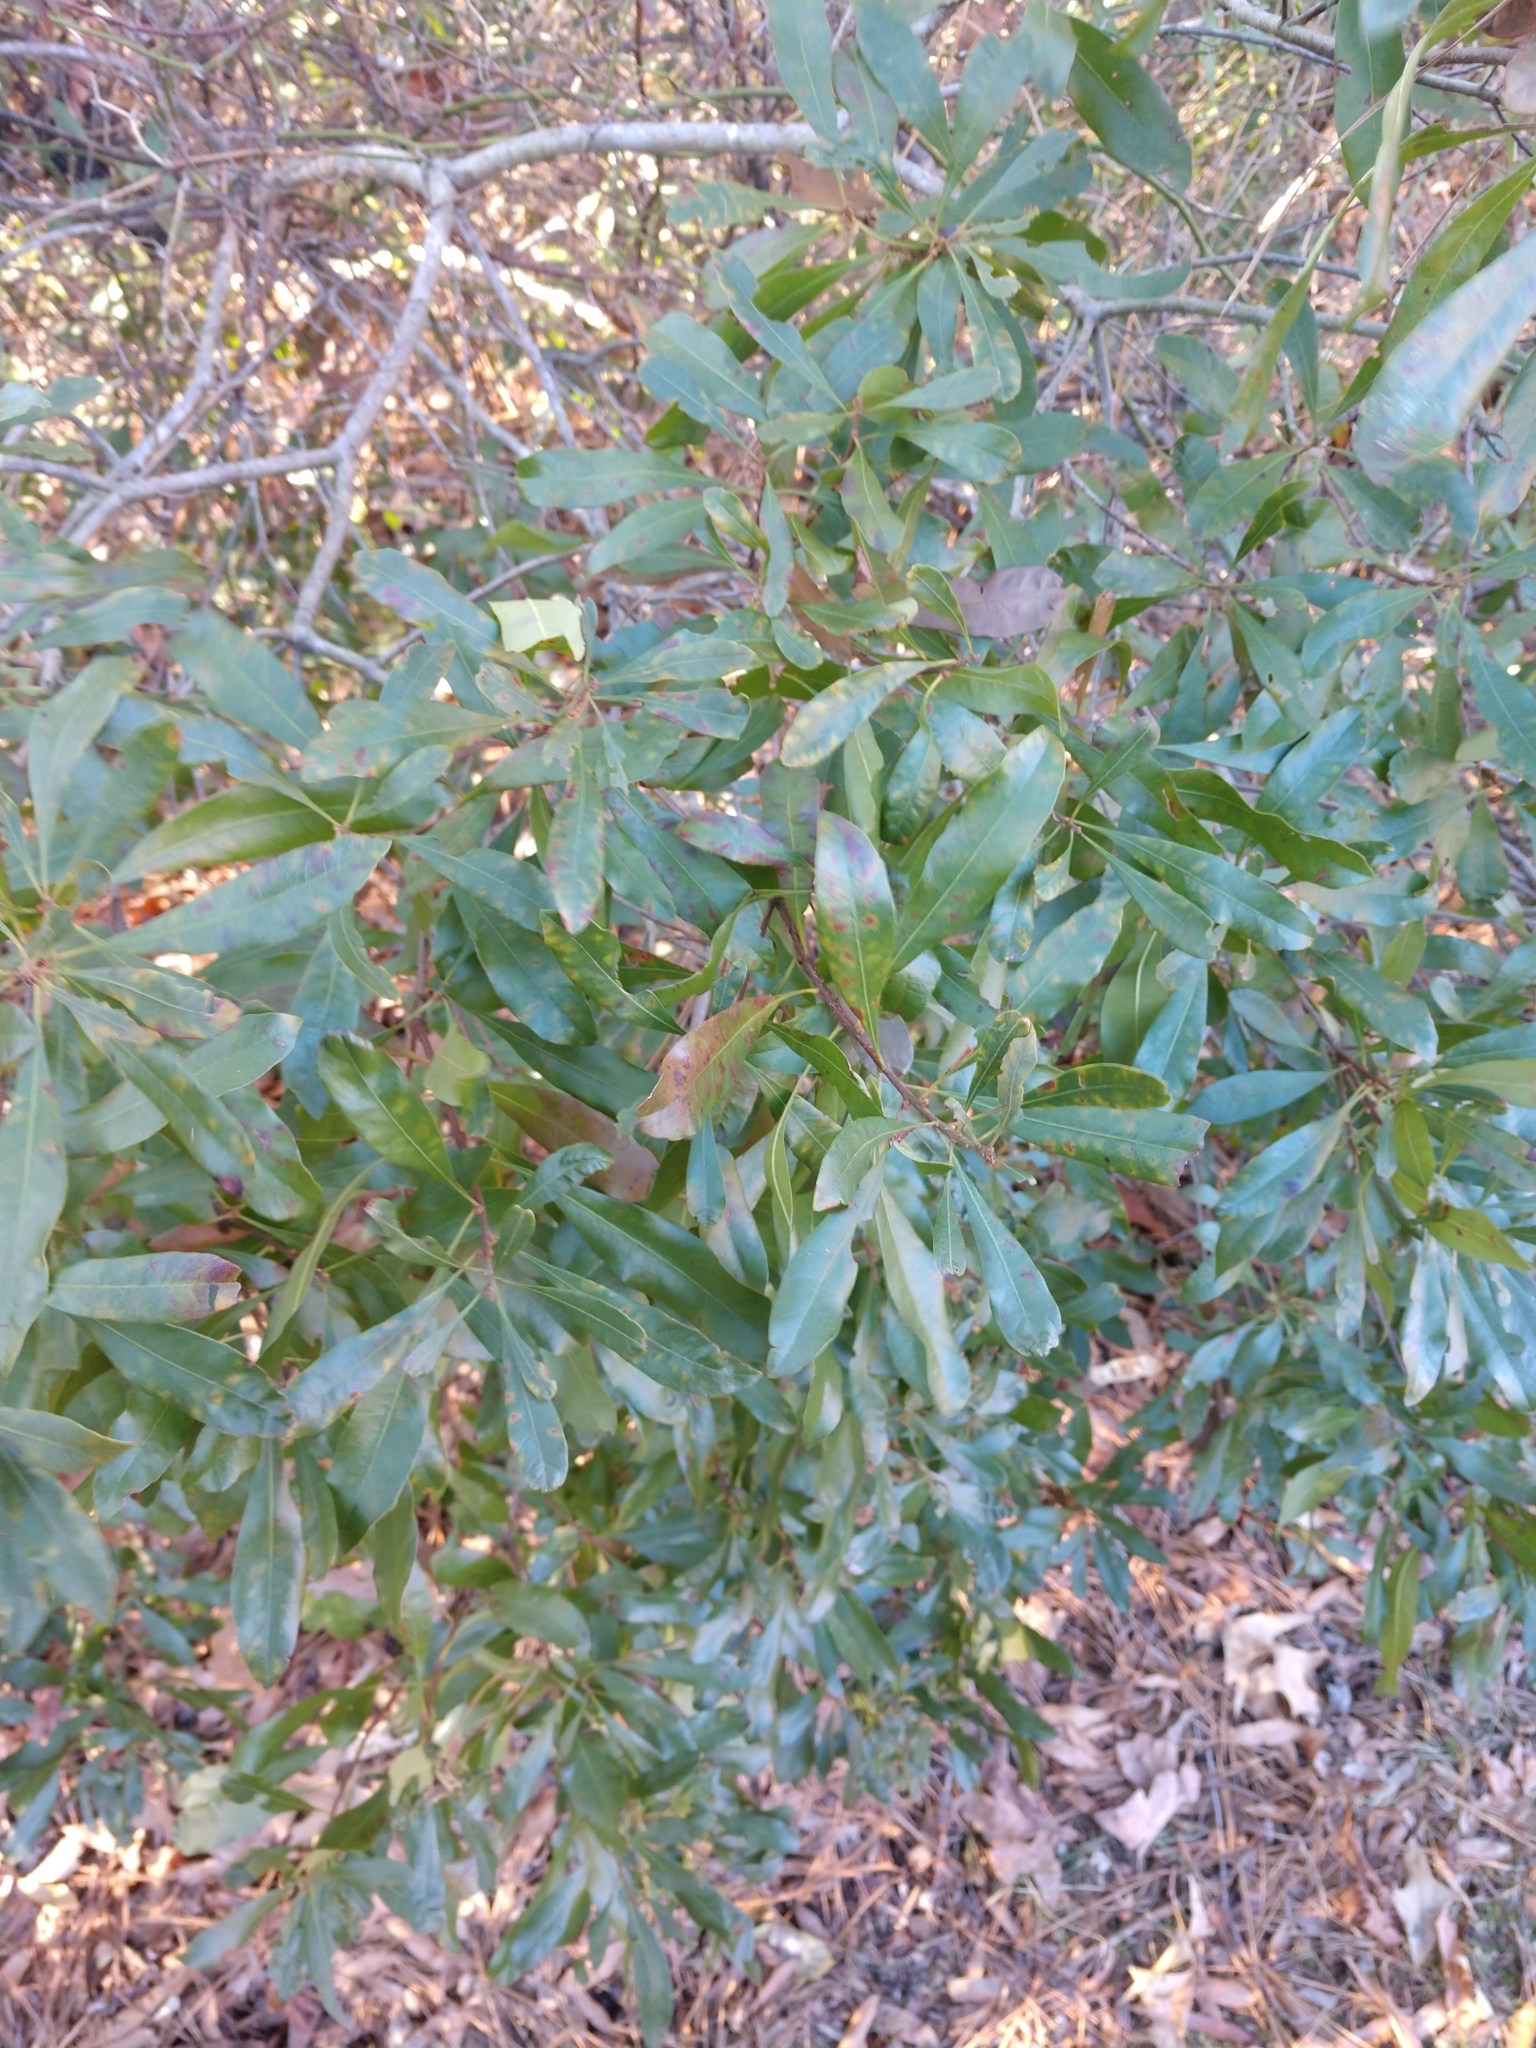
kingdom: Plantae
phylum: Tracheophyta
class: Magnoliopsida
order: Fagales
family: Myricaceae
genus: Morella
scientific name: Morella cerifera
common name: Wax myrtle
